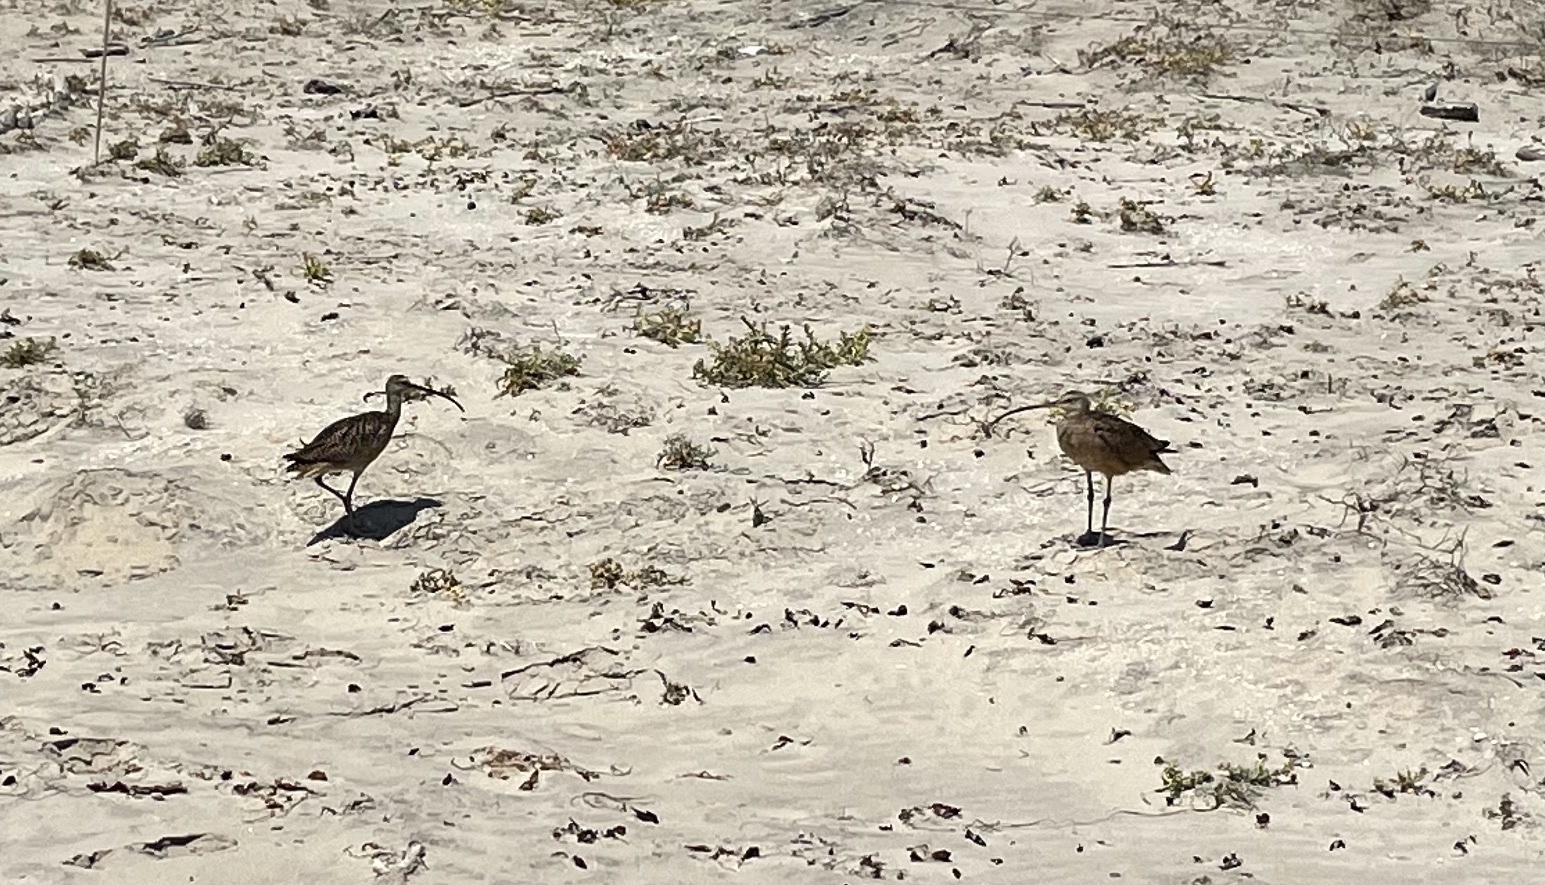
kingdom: Animalia
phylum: Chordata
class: Aves
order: Charadriiformes
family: Scolopacidae
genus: Numenius
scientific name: Numenius americanus
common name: Long-billed curlew
